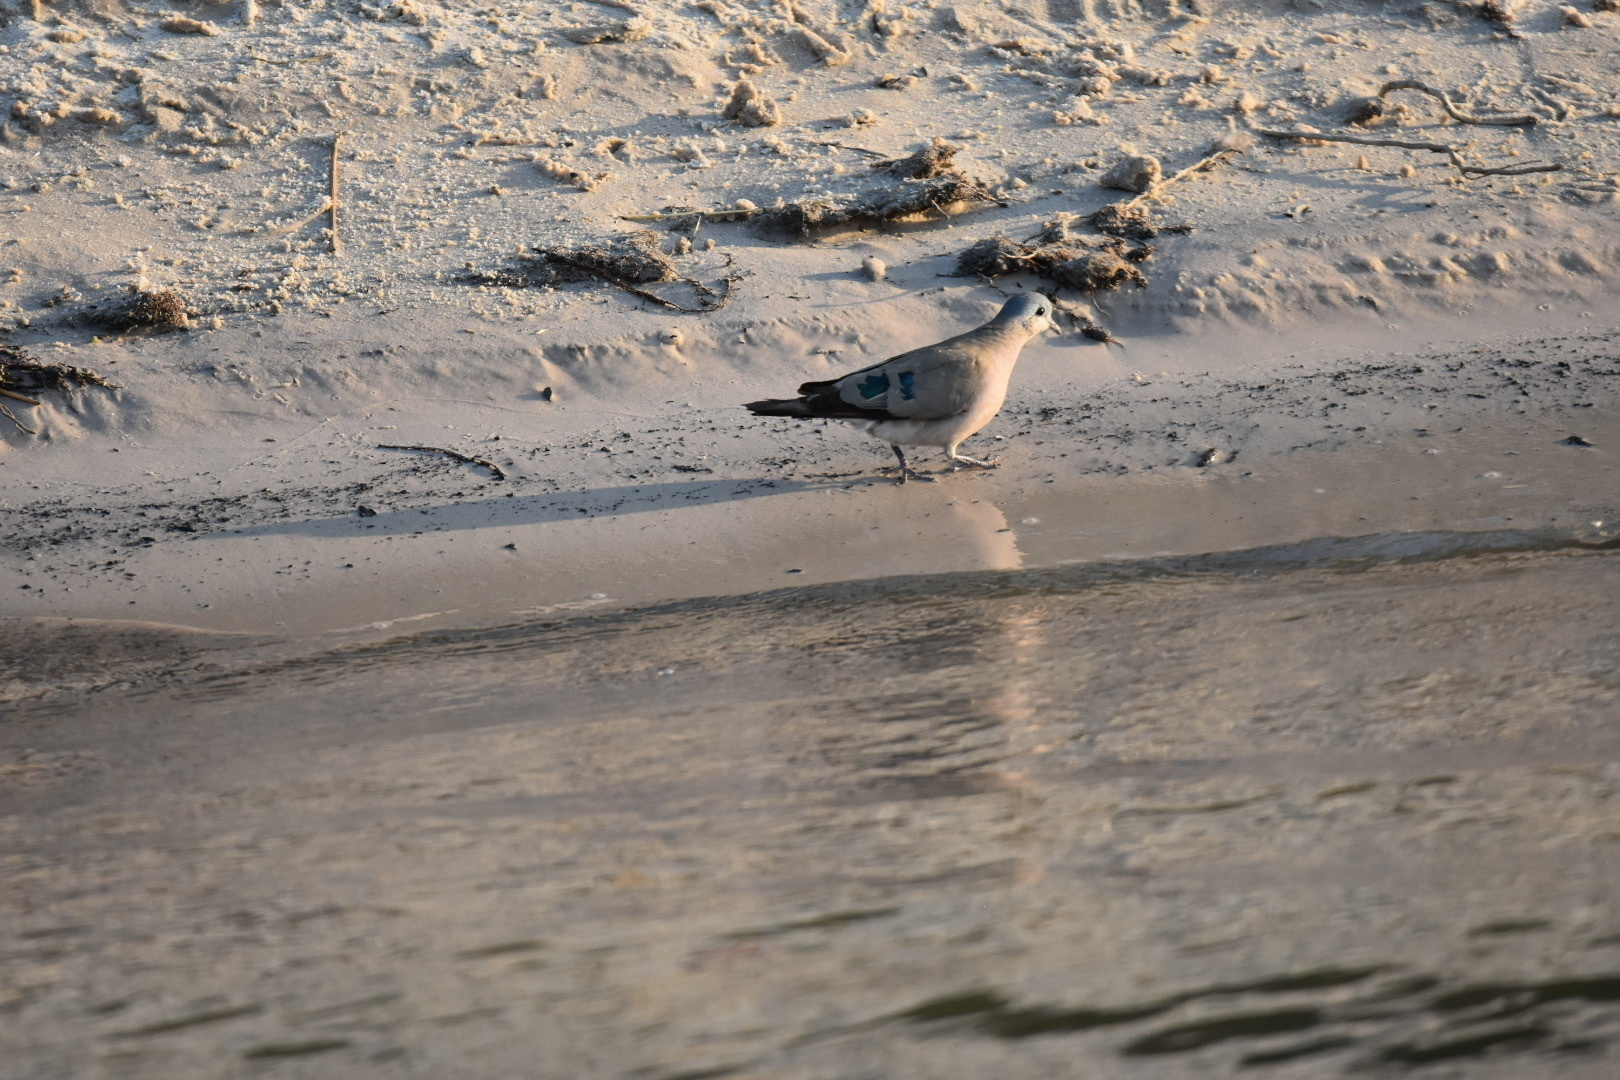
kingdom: Animalia
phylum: Chordata
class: Aves
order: Columbiformes
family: Columbidae
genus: Turtur
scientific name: Turtur chalcospilos
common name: Emerald-spotted wood dove
